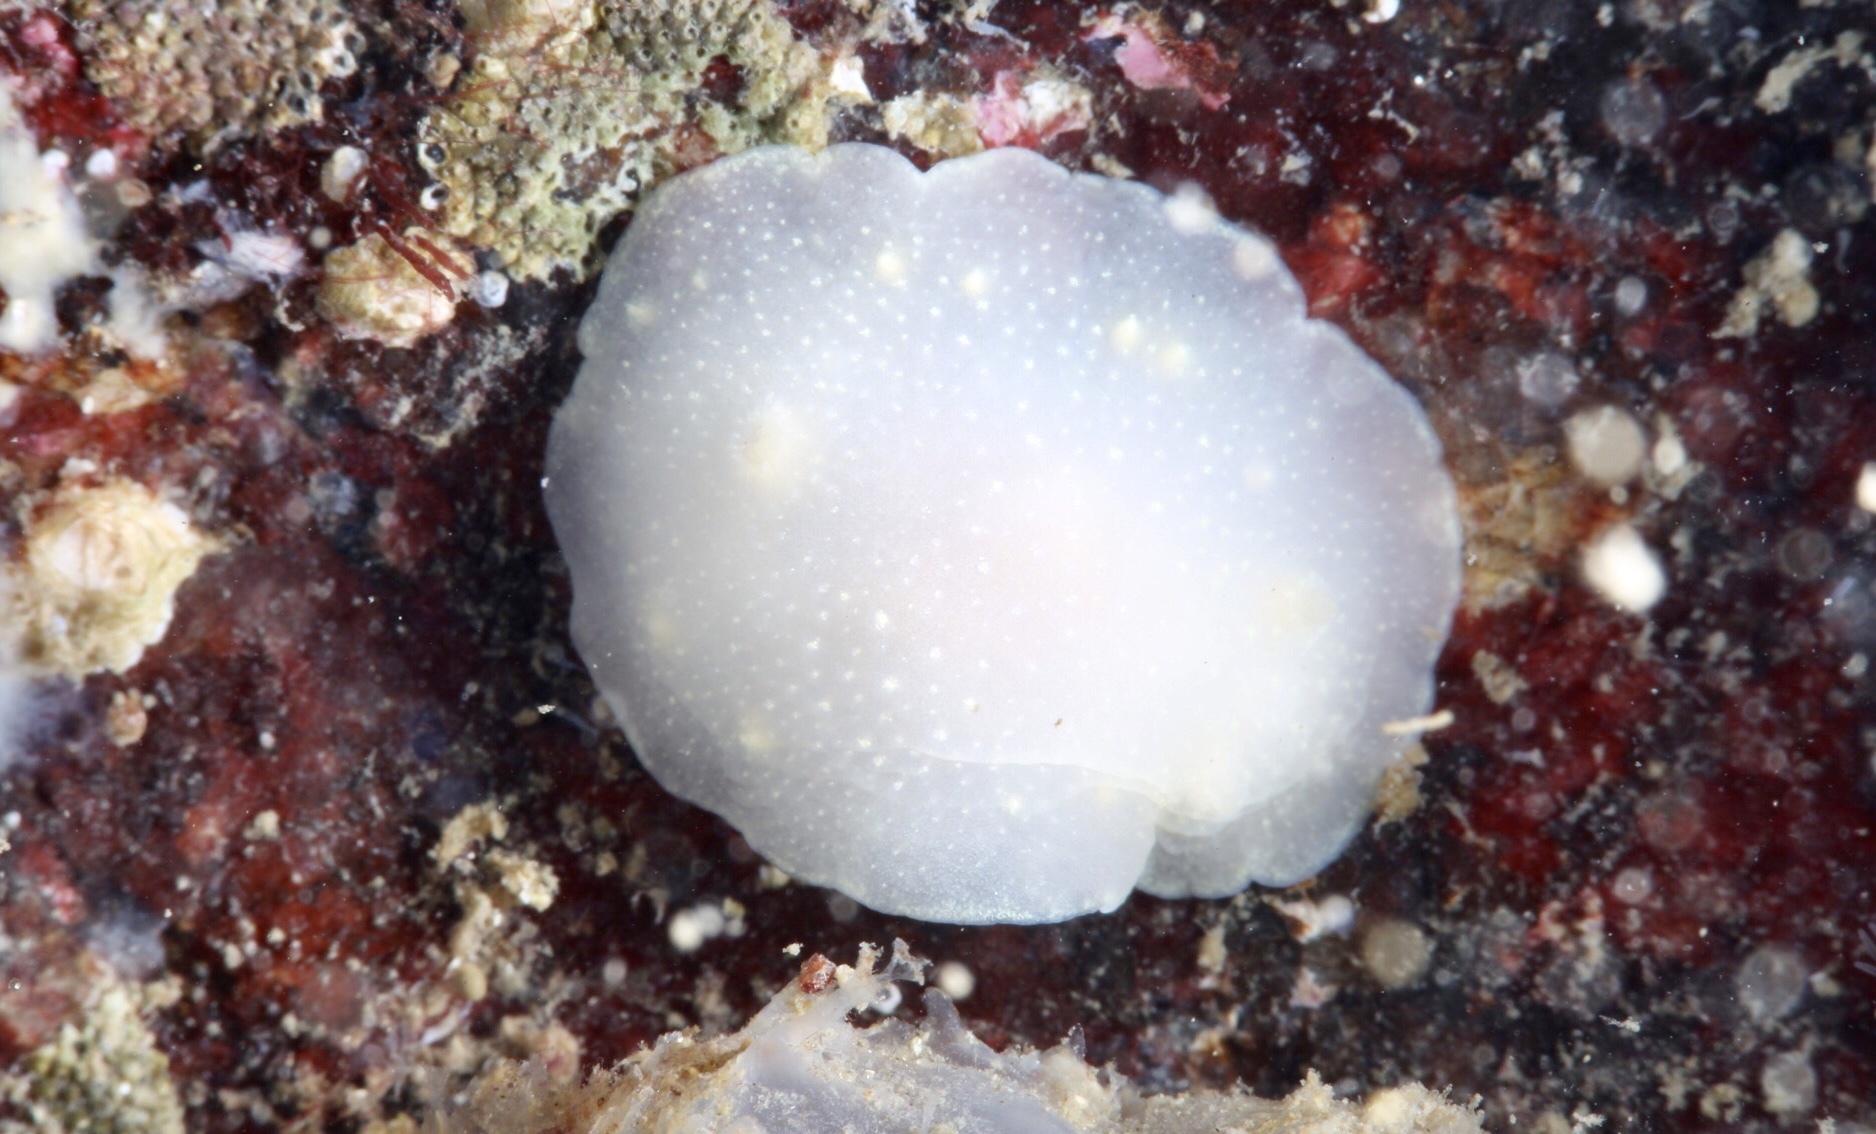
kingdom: Animalia
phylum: Mollusca
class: Gastropoda
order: Nudibranchia
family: Cadlinidae
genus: Cadlina
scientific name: Cadlina laevis
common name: White atlantic cadlina
